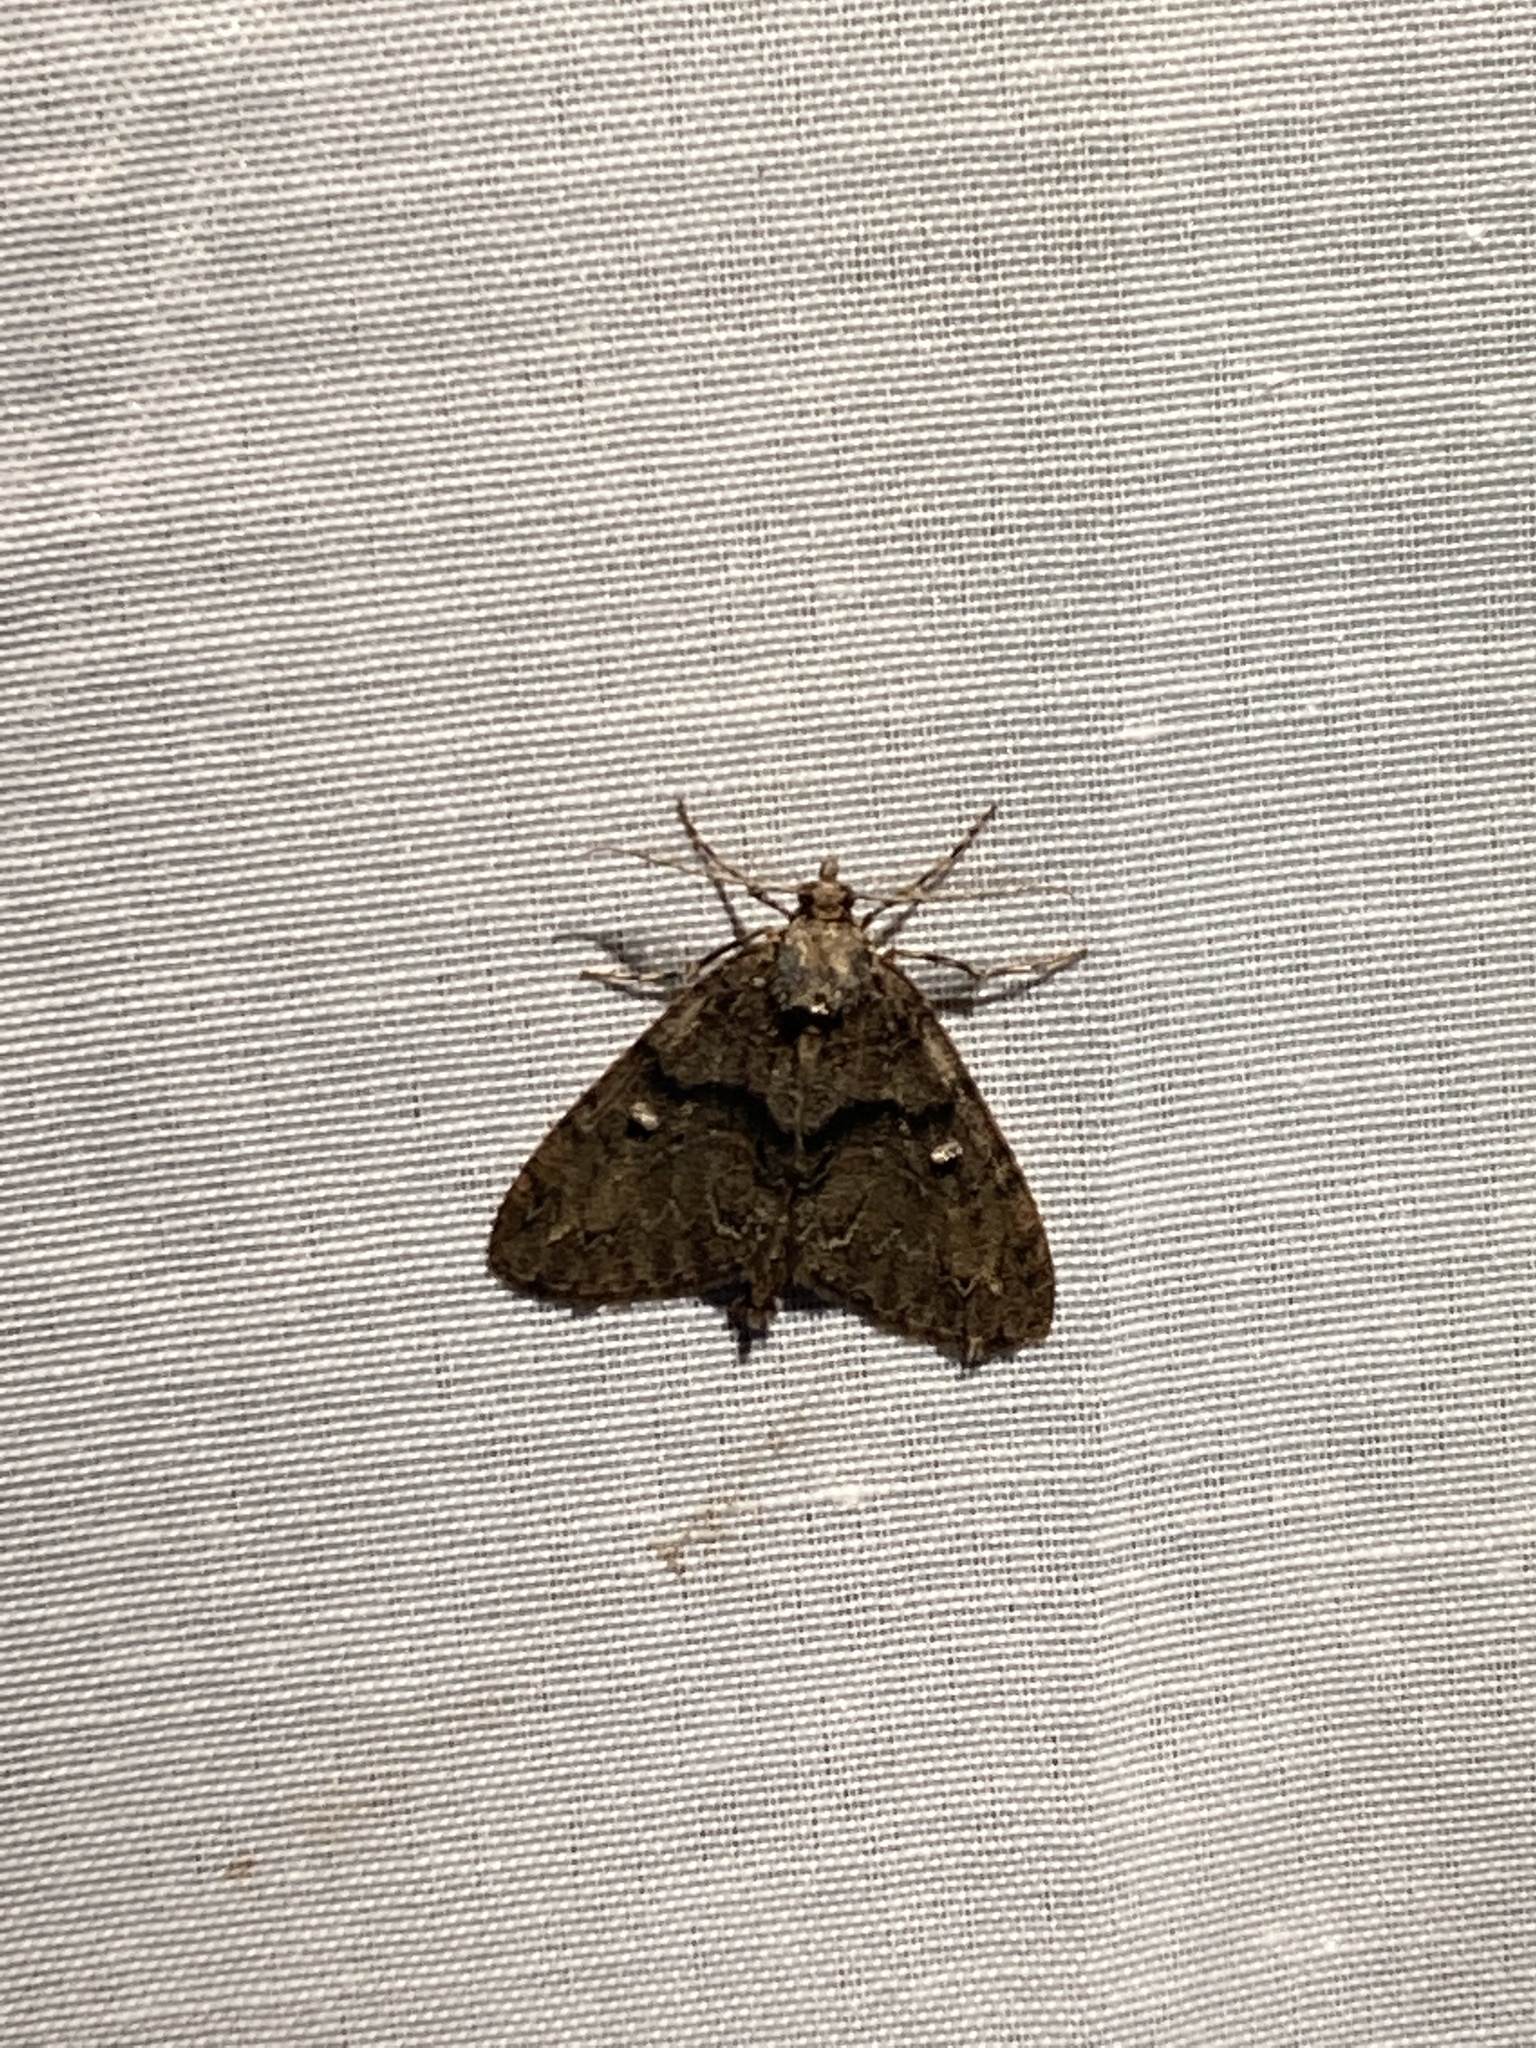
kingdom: Animalia
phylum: Arthropoda
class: Insecta
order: Lepidoptera
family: Geometridae
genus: Pseudocoremia
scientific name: Pseudocoremia suavis
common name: Common forest looper
